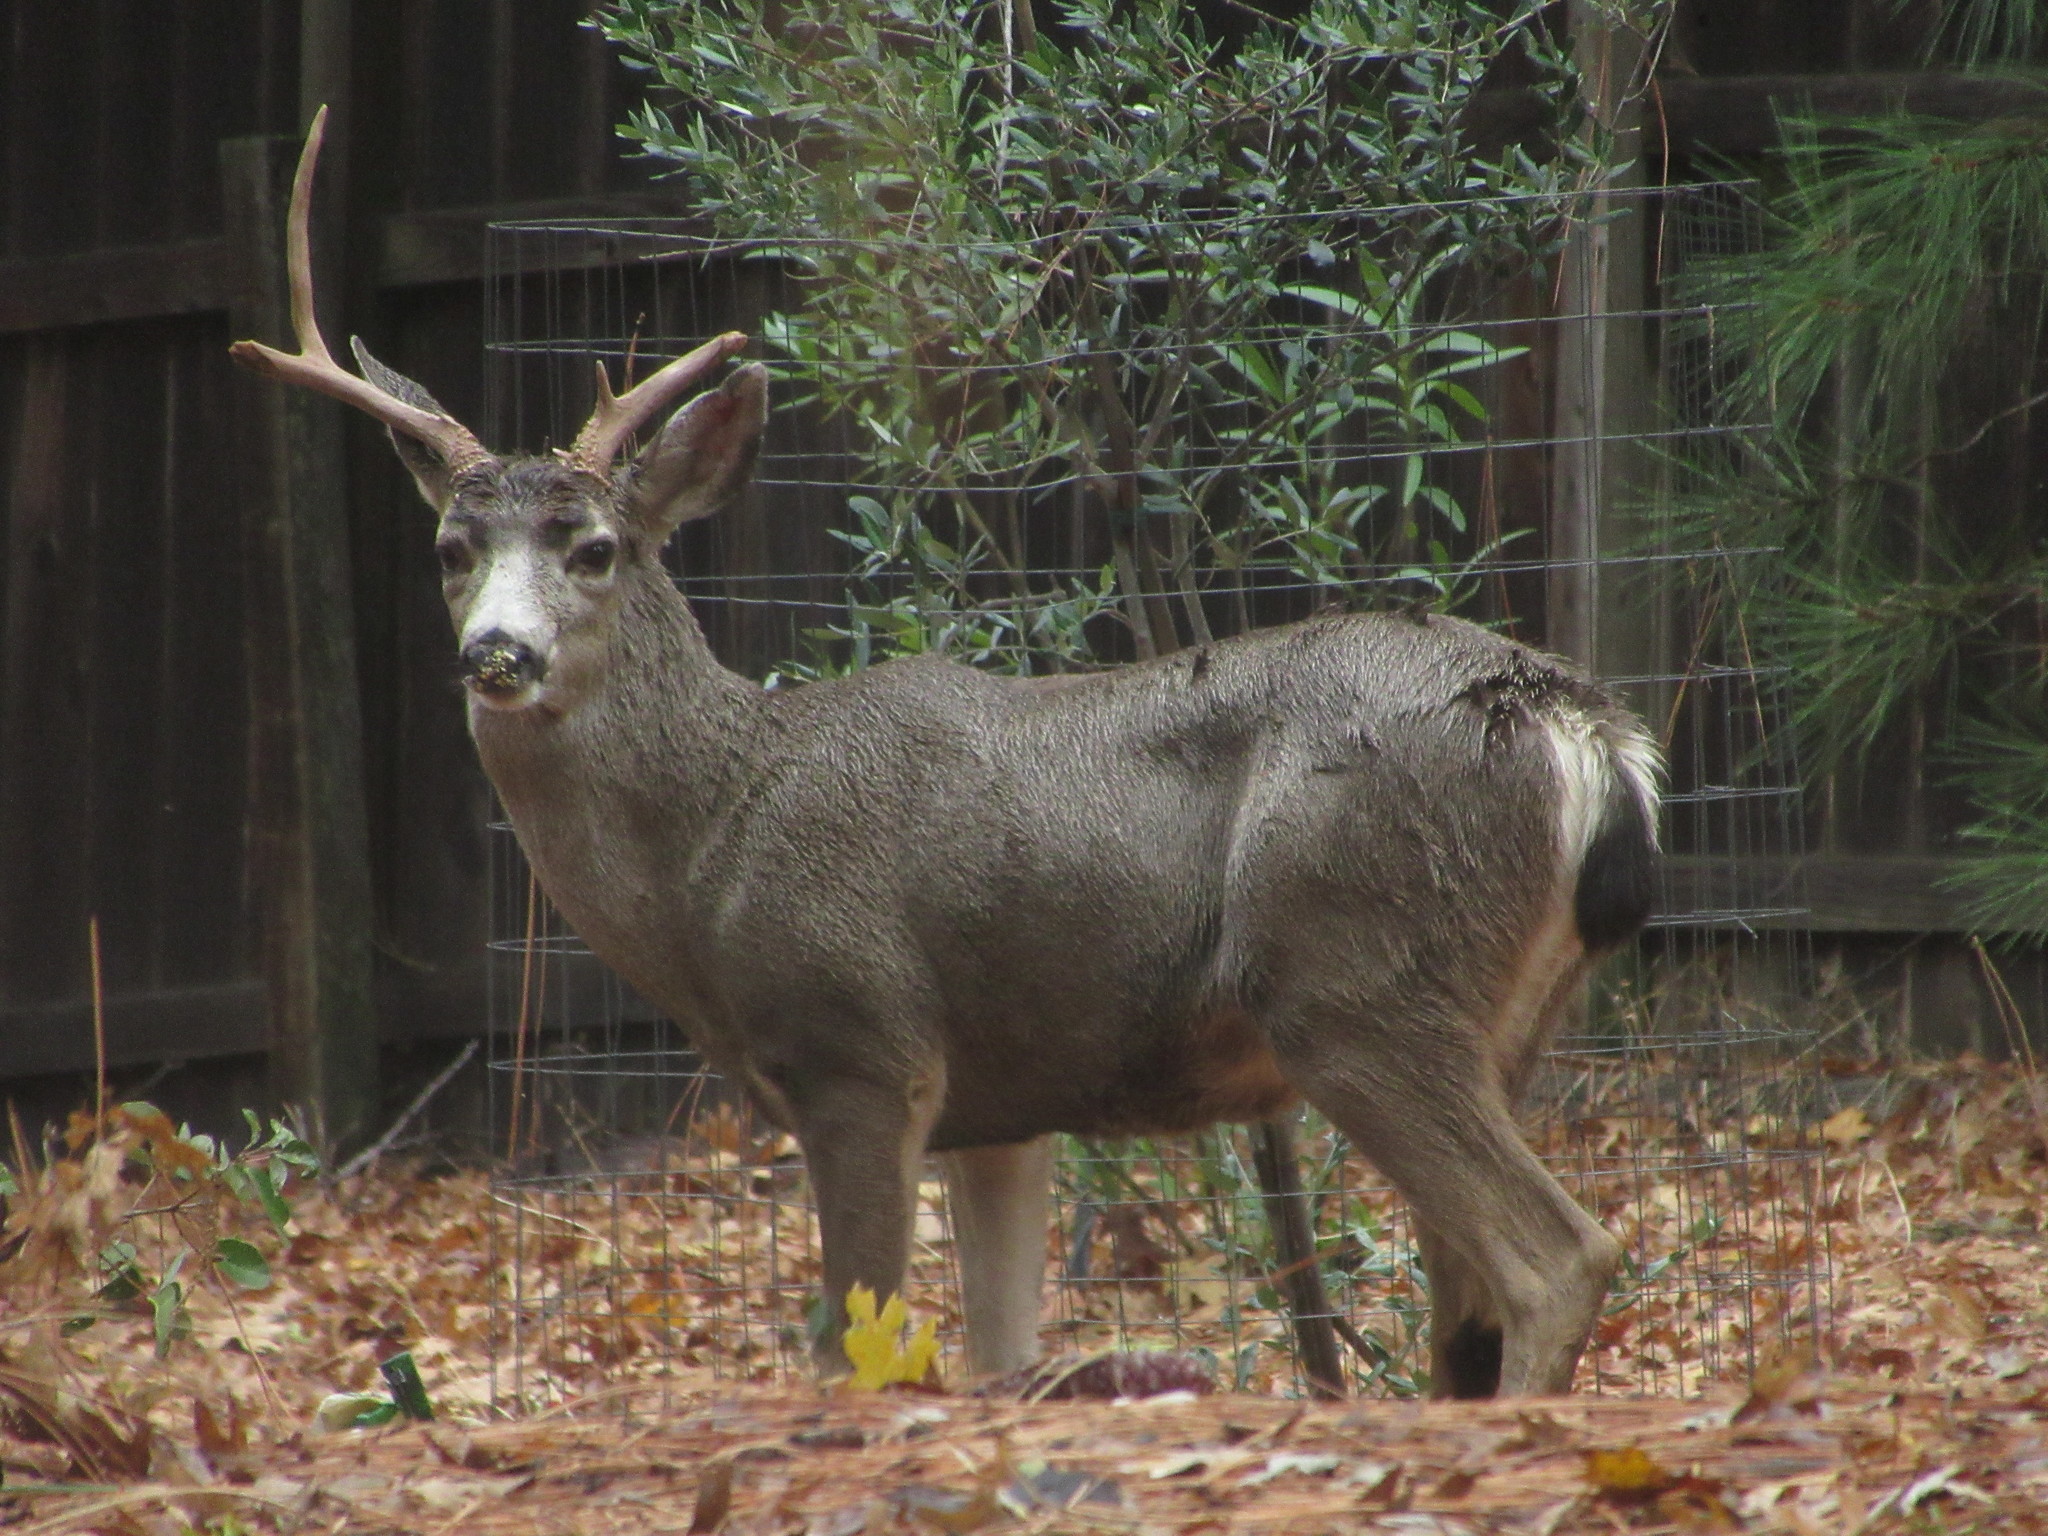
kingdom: Animalia
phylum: Chordata
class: Mammalia
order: Artiodactyla
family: Cervidae
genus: Odocoileus
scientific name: Odocoileus hemionus
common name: Mule deer
